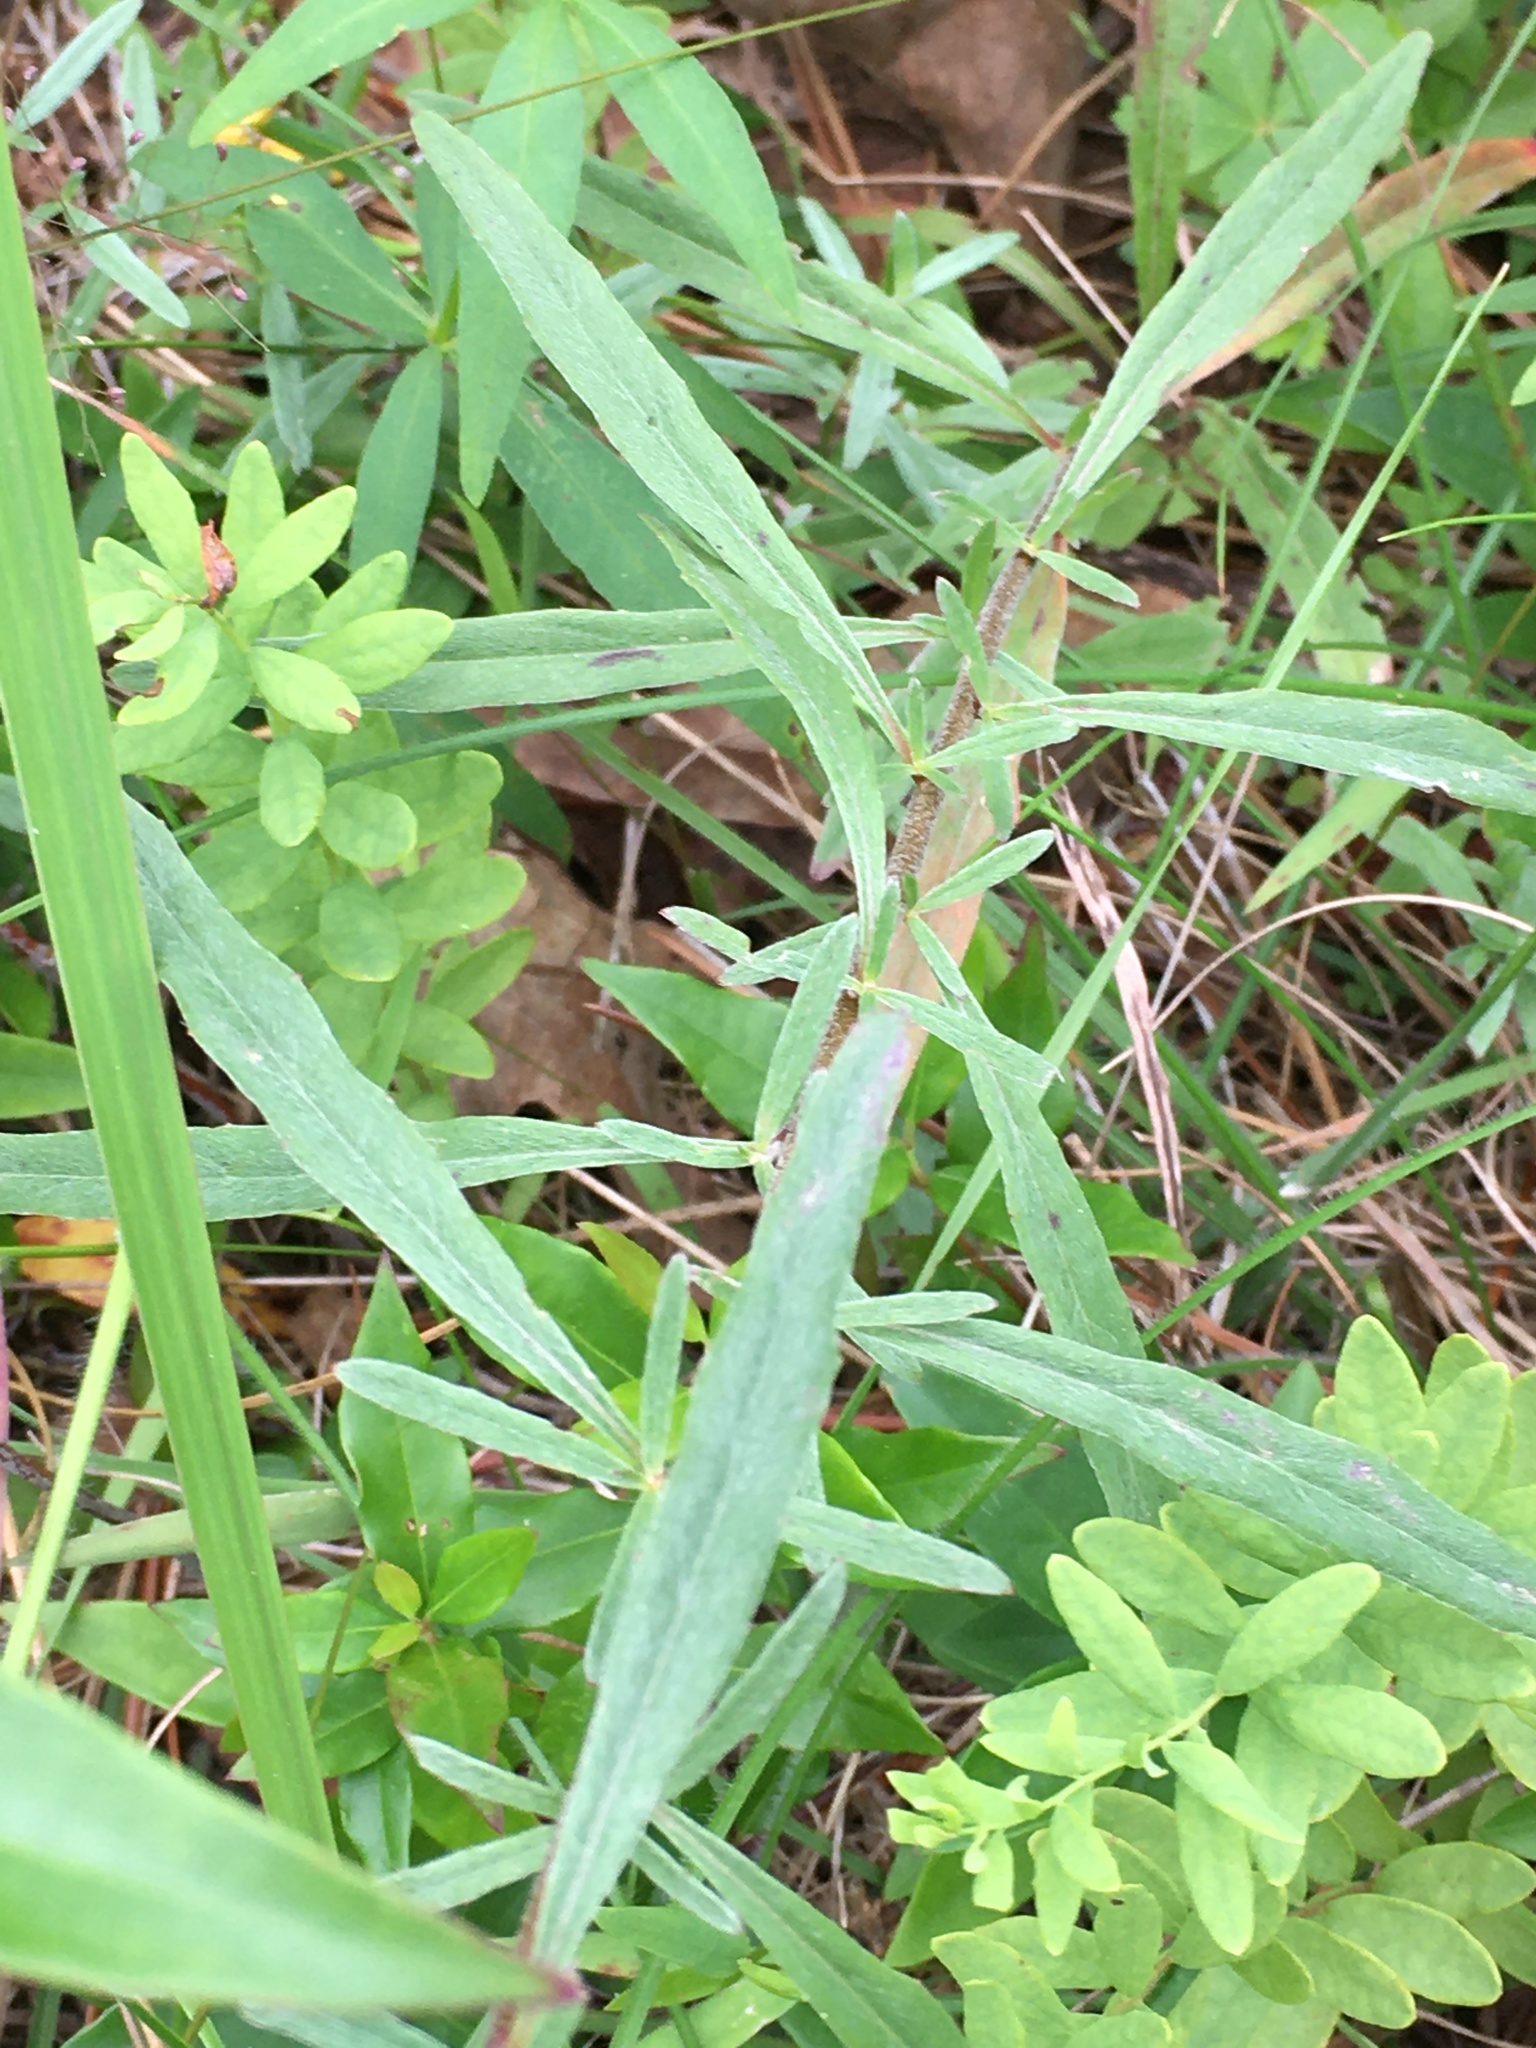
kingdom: Plantae
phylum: Tracheophyta
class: Magnoliopsida
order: Myrtales
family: Onagraceae
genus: Oenothera
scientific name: Oenothera fruticosa
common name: Southern sundrops
